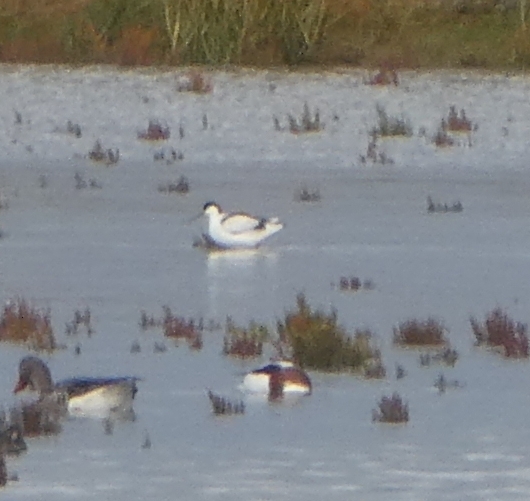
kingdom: Animalia
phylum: Chordata
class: Aves
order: Charadriiformes
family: Recurvirostridae
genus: Recurvirostra
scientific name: Recurvirostra avosetta
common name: Pied avocet
